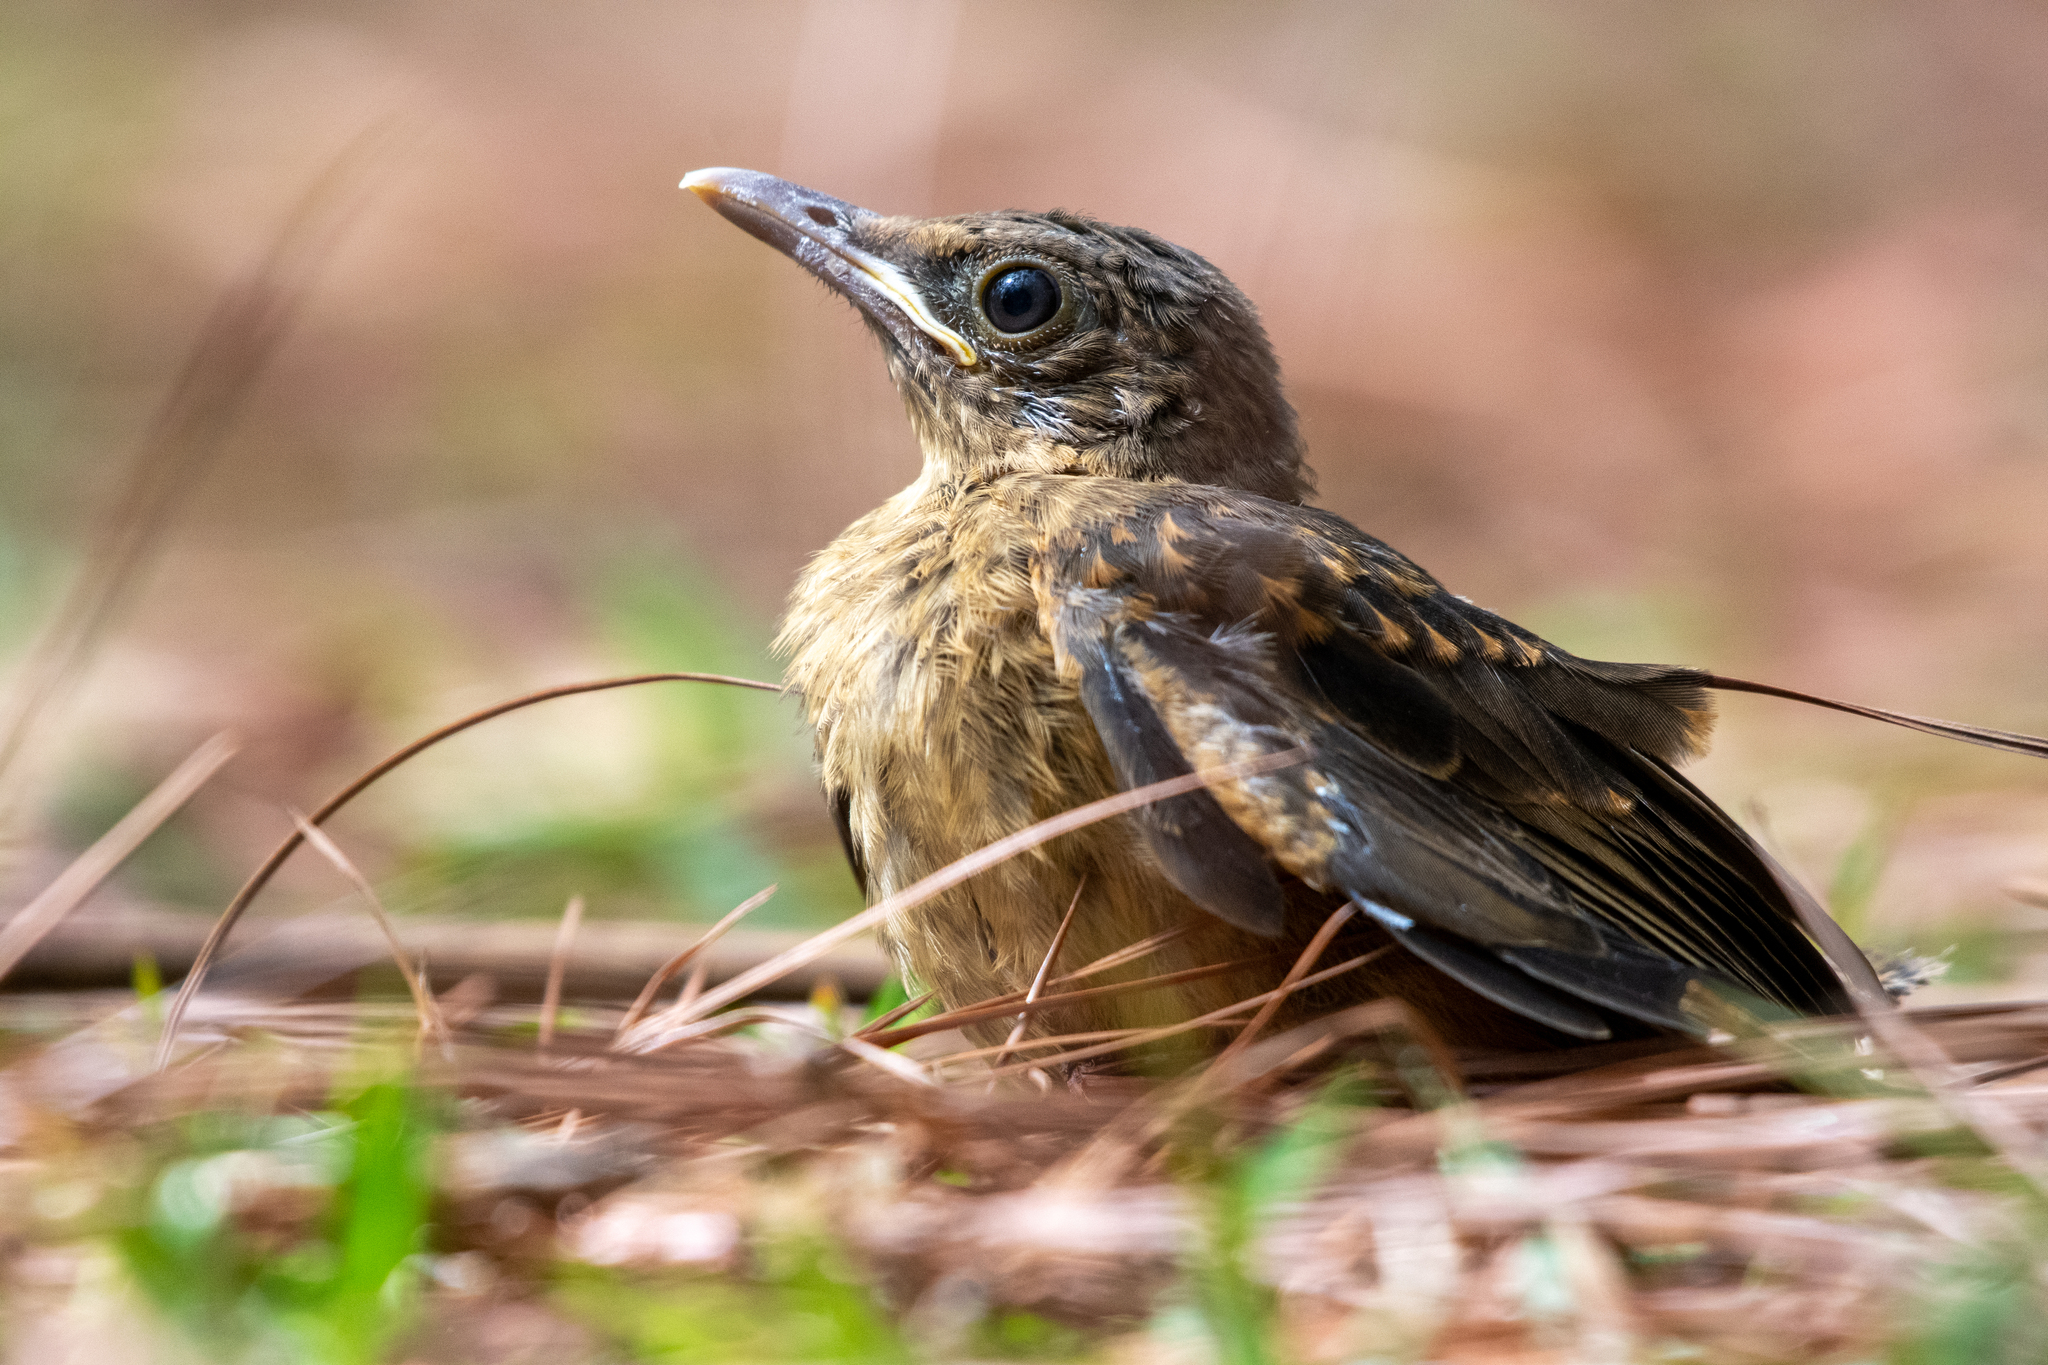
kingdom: Animalia
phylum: Chordata
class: Aves
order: Passeriformes
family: Turdidae
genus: Turdus
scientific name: Turdus grayi
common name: Clay-colored thrush
